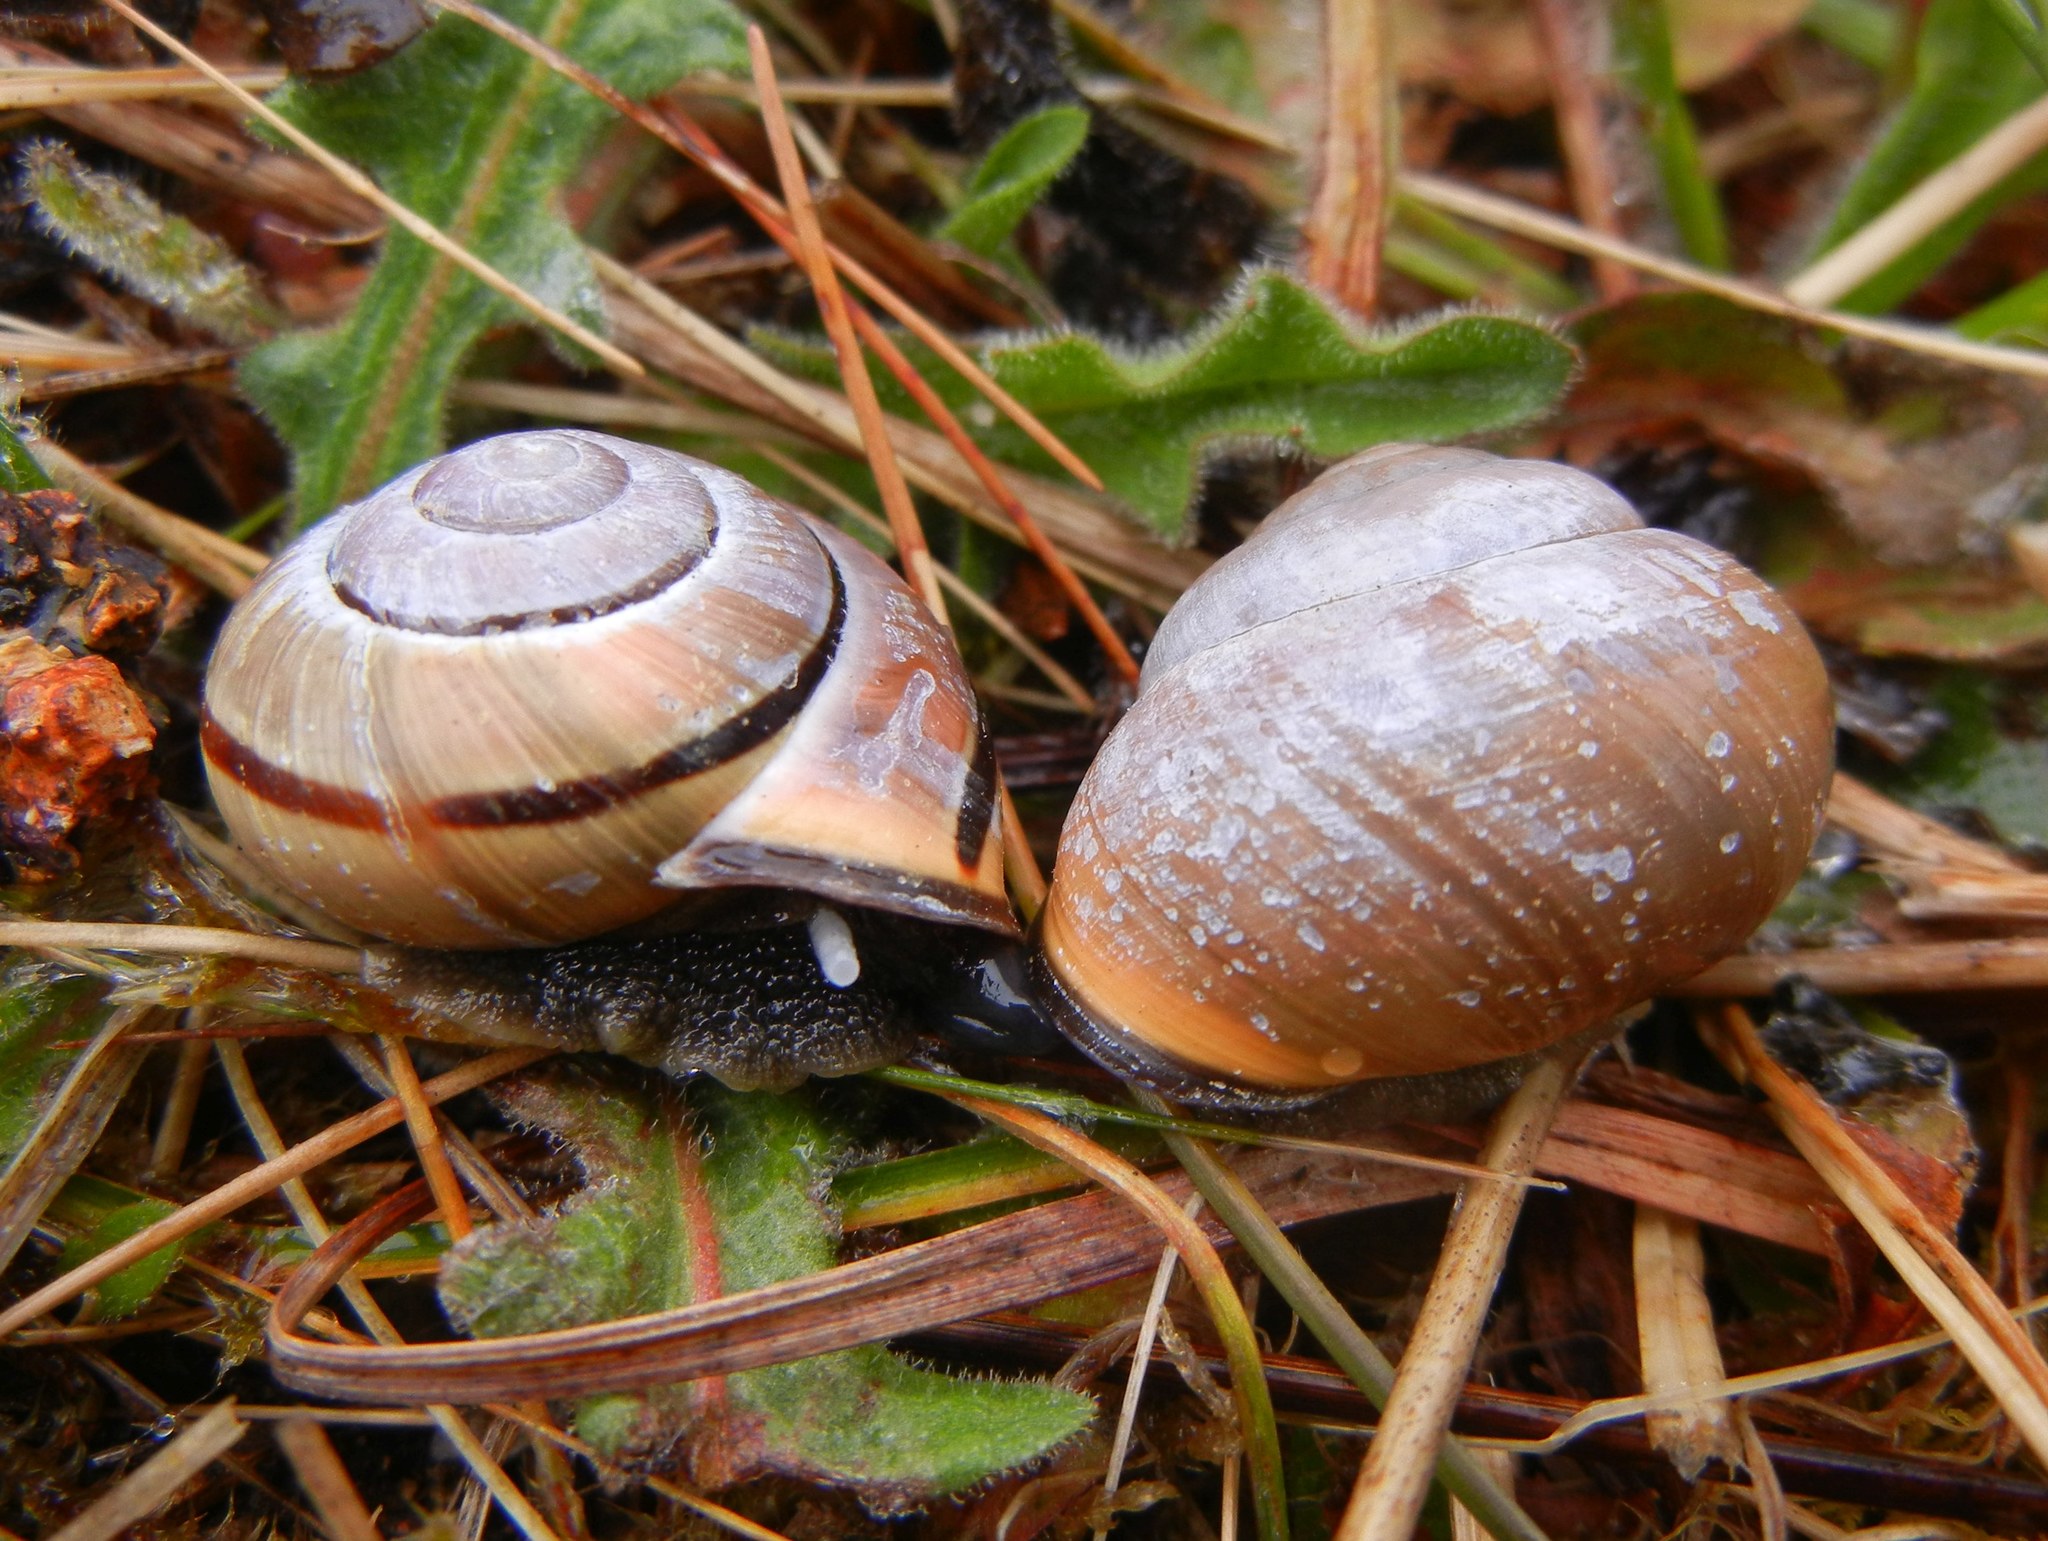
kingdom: Animalia
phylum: Mollusca
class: Gastropoda
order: Stylommatophora
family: Helicidae
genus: Cepaea
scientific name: Cepaea nemoralis
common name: Grovesnail
